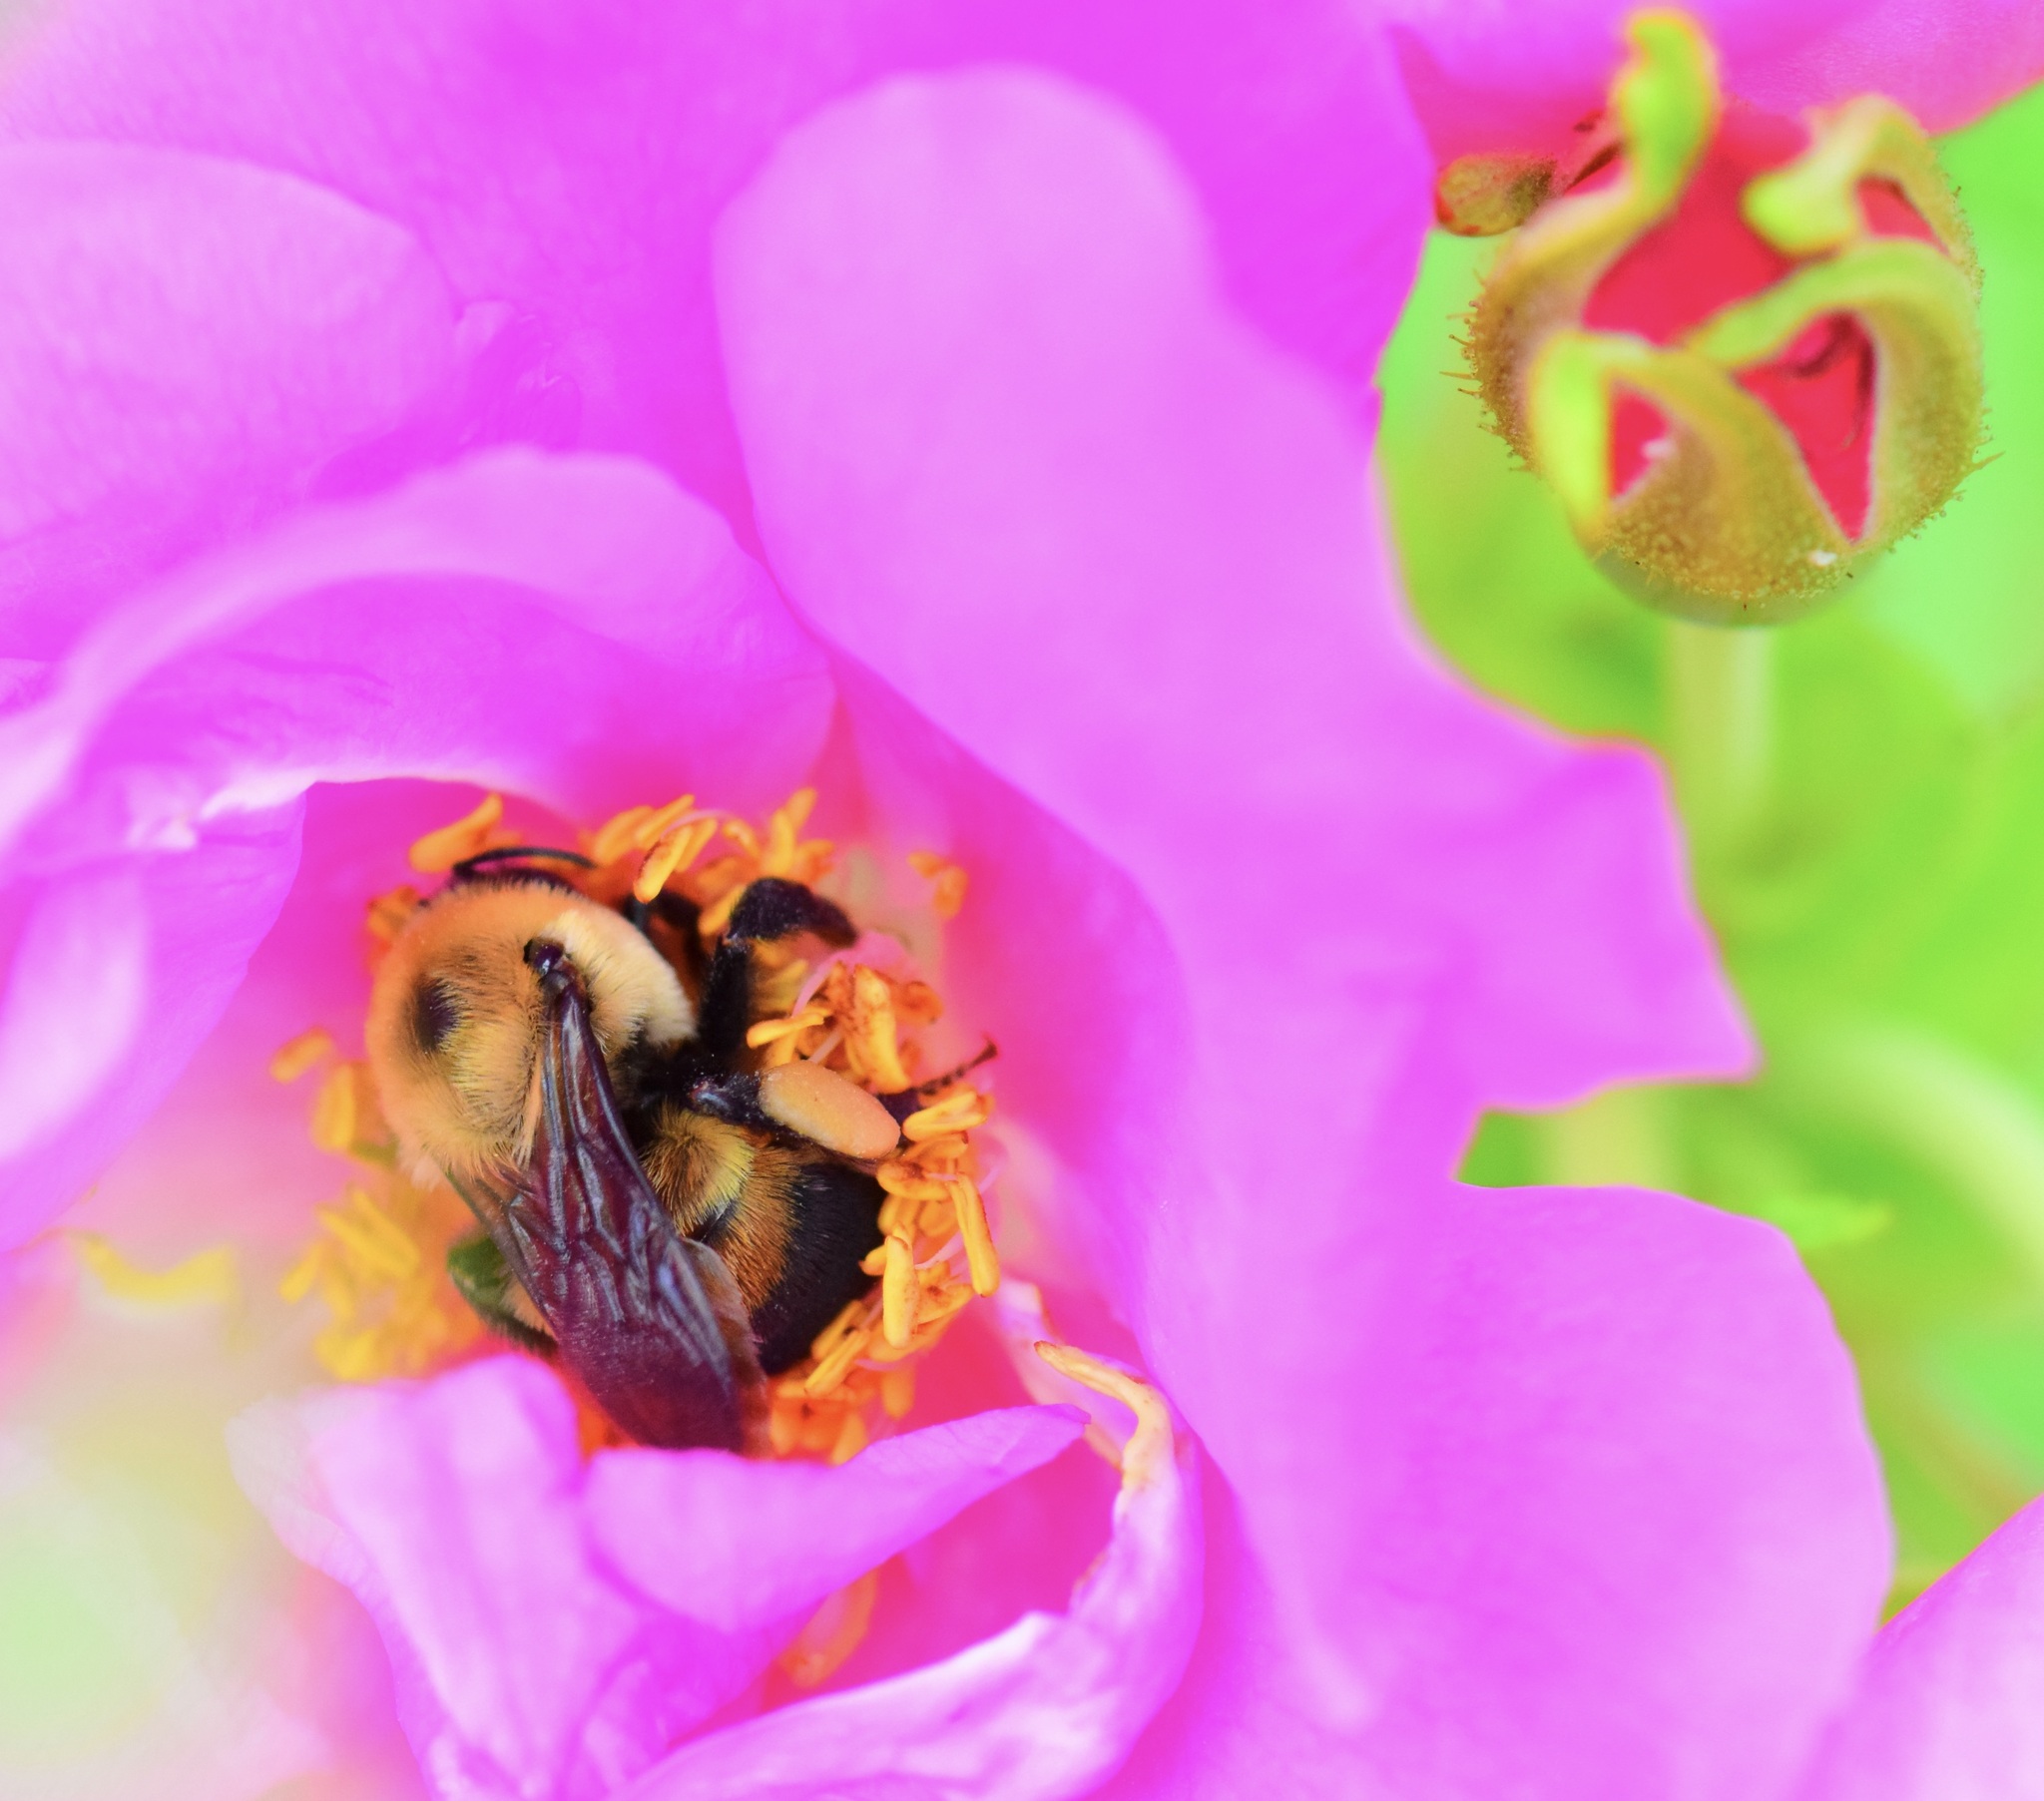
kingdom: Animalia
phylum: Arthropoda
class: Insecta
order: Hymenoptera
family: Apidae
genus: Bombus
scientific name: Bombus griseocollis
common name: Brown-belted bumble bee
